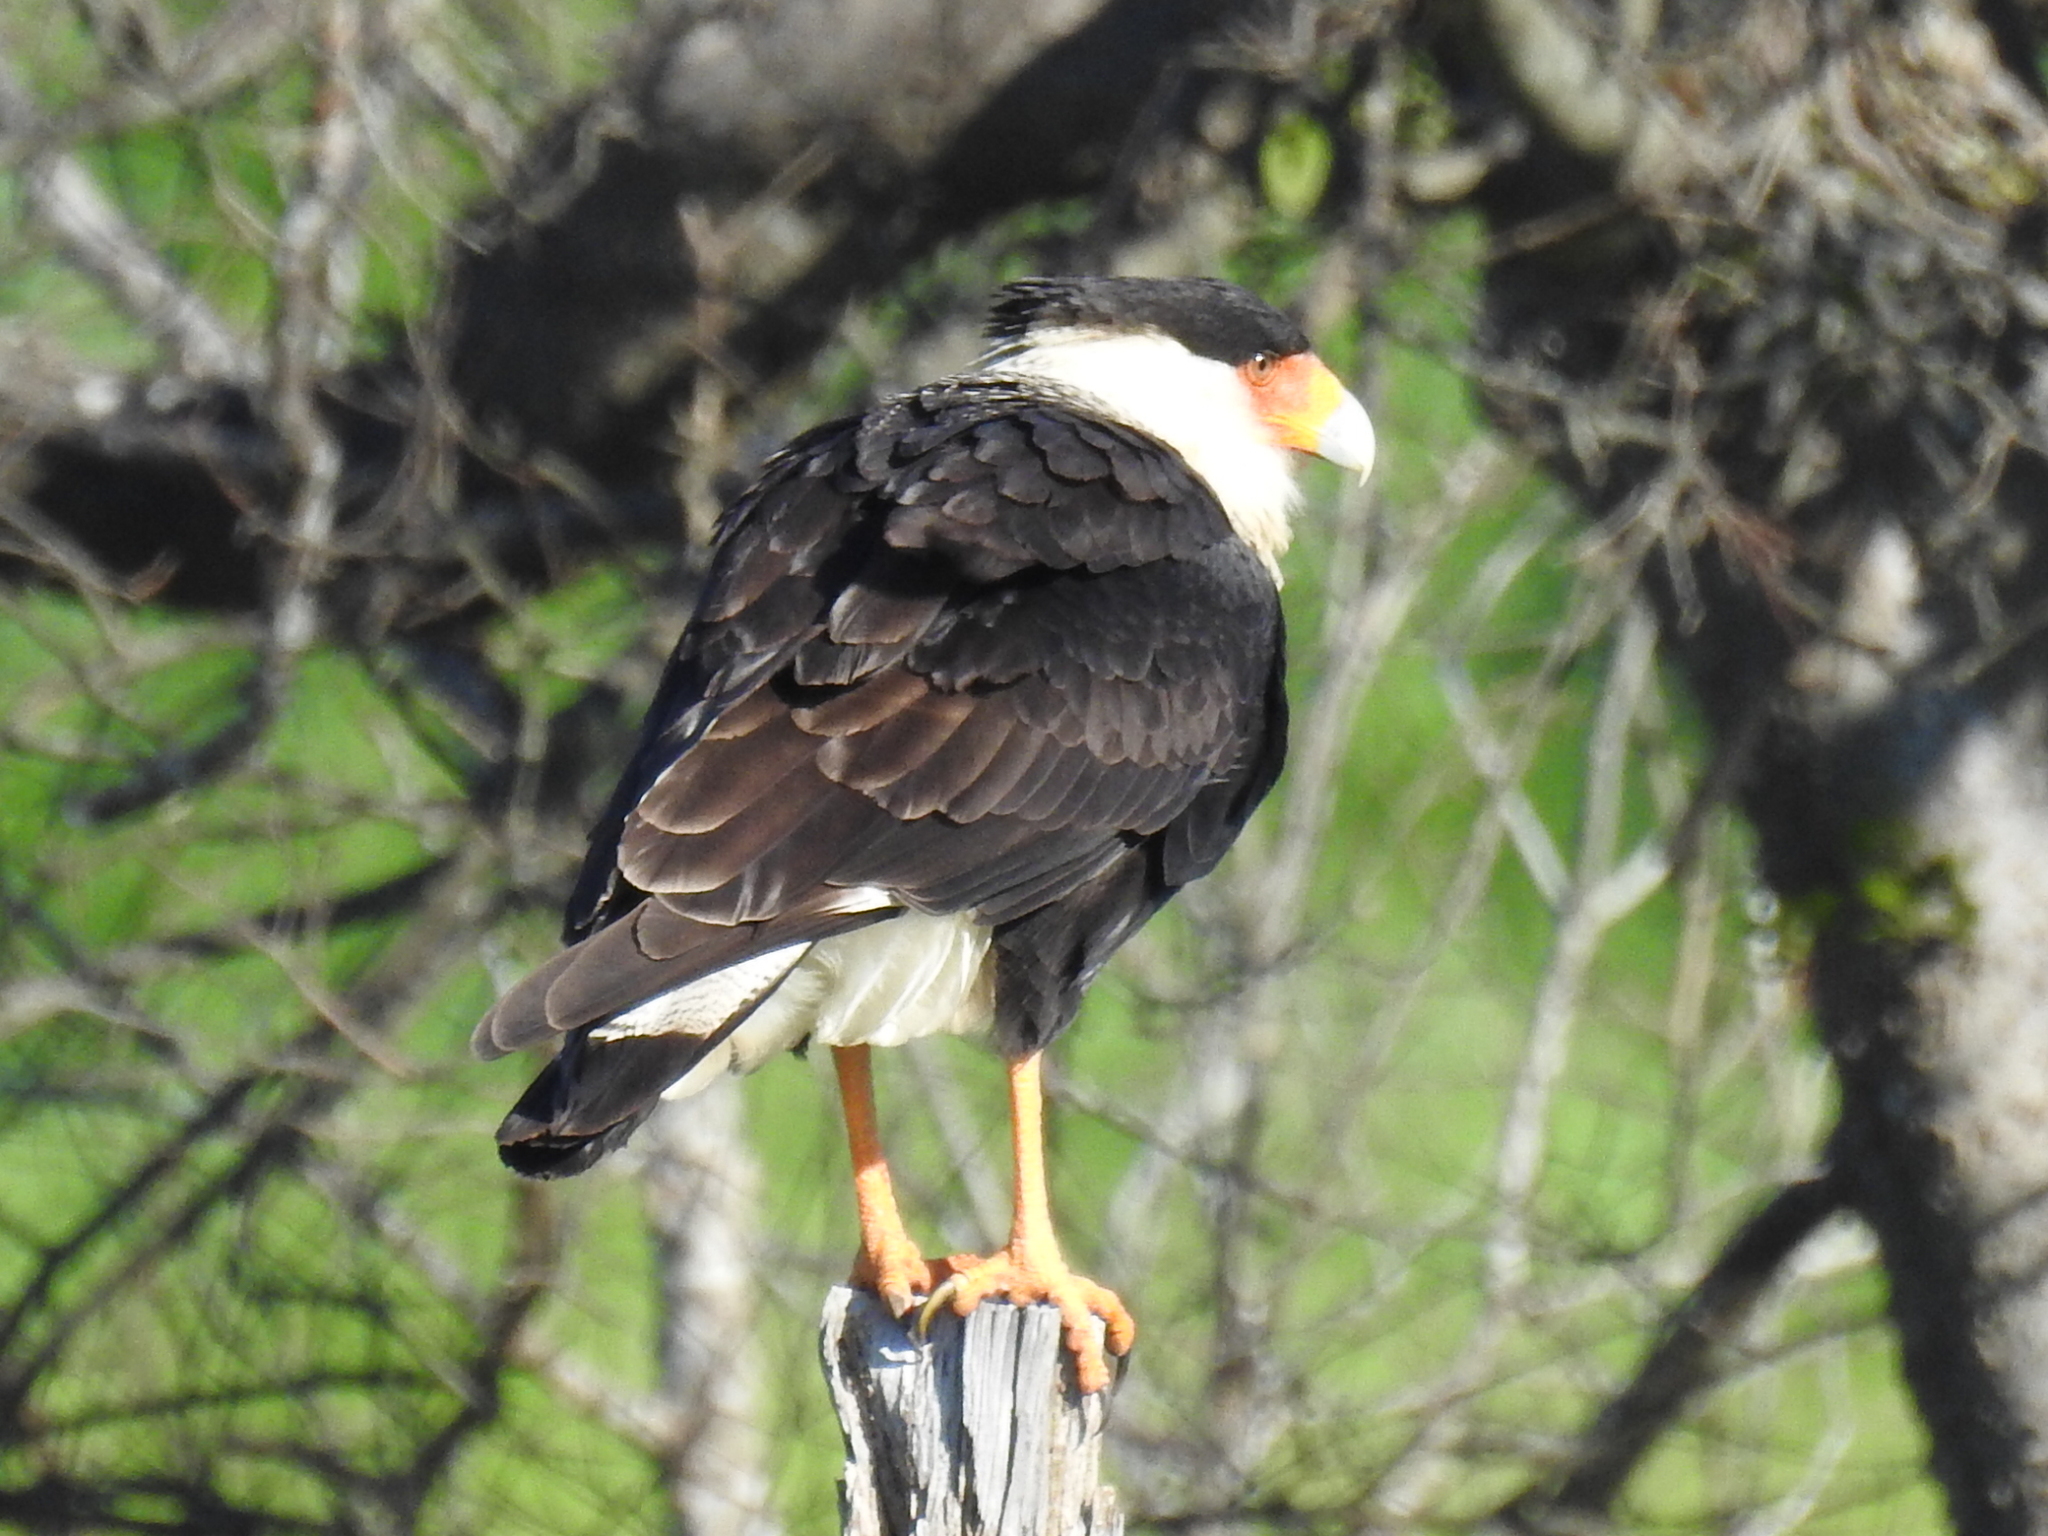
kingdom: Animalia
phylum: Chordata
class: Aves
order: Falconiformes
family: Falconidae
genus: Caracara
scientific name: Caracara plancus
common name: Southern caracara
